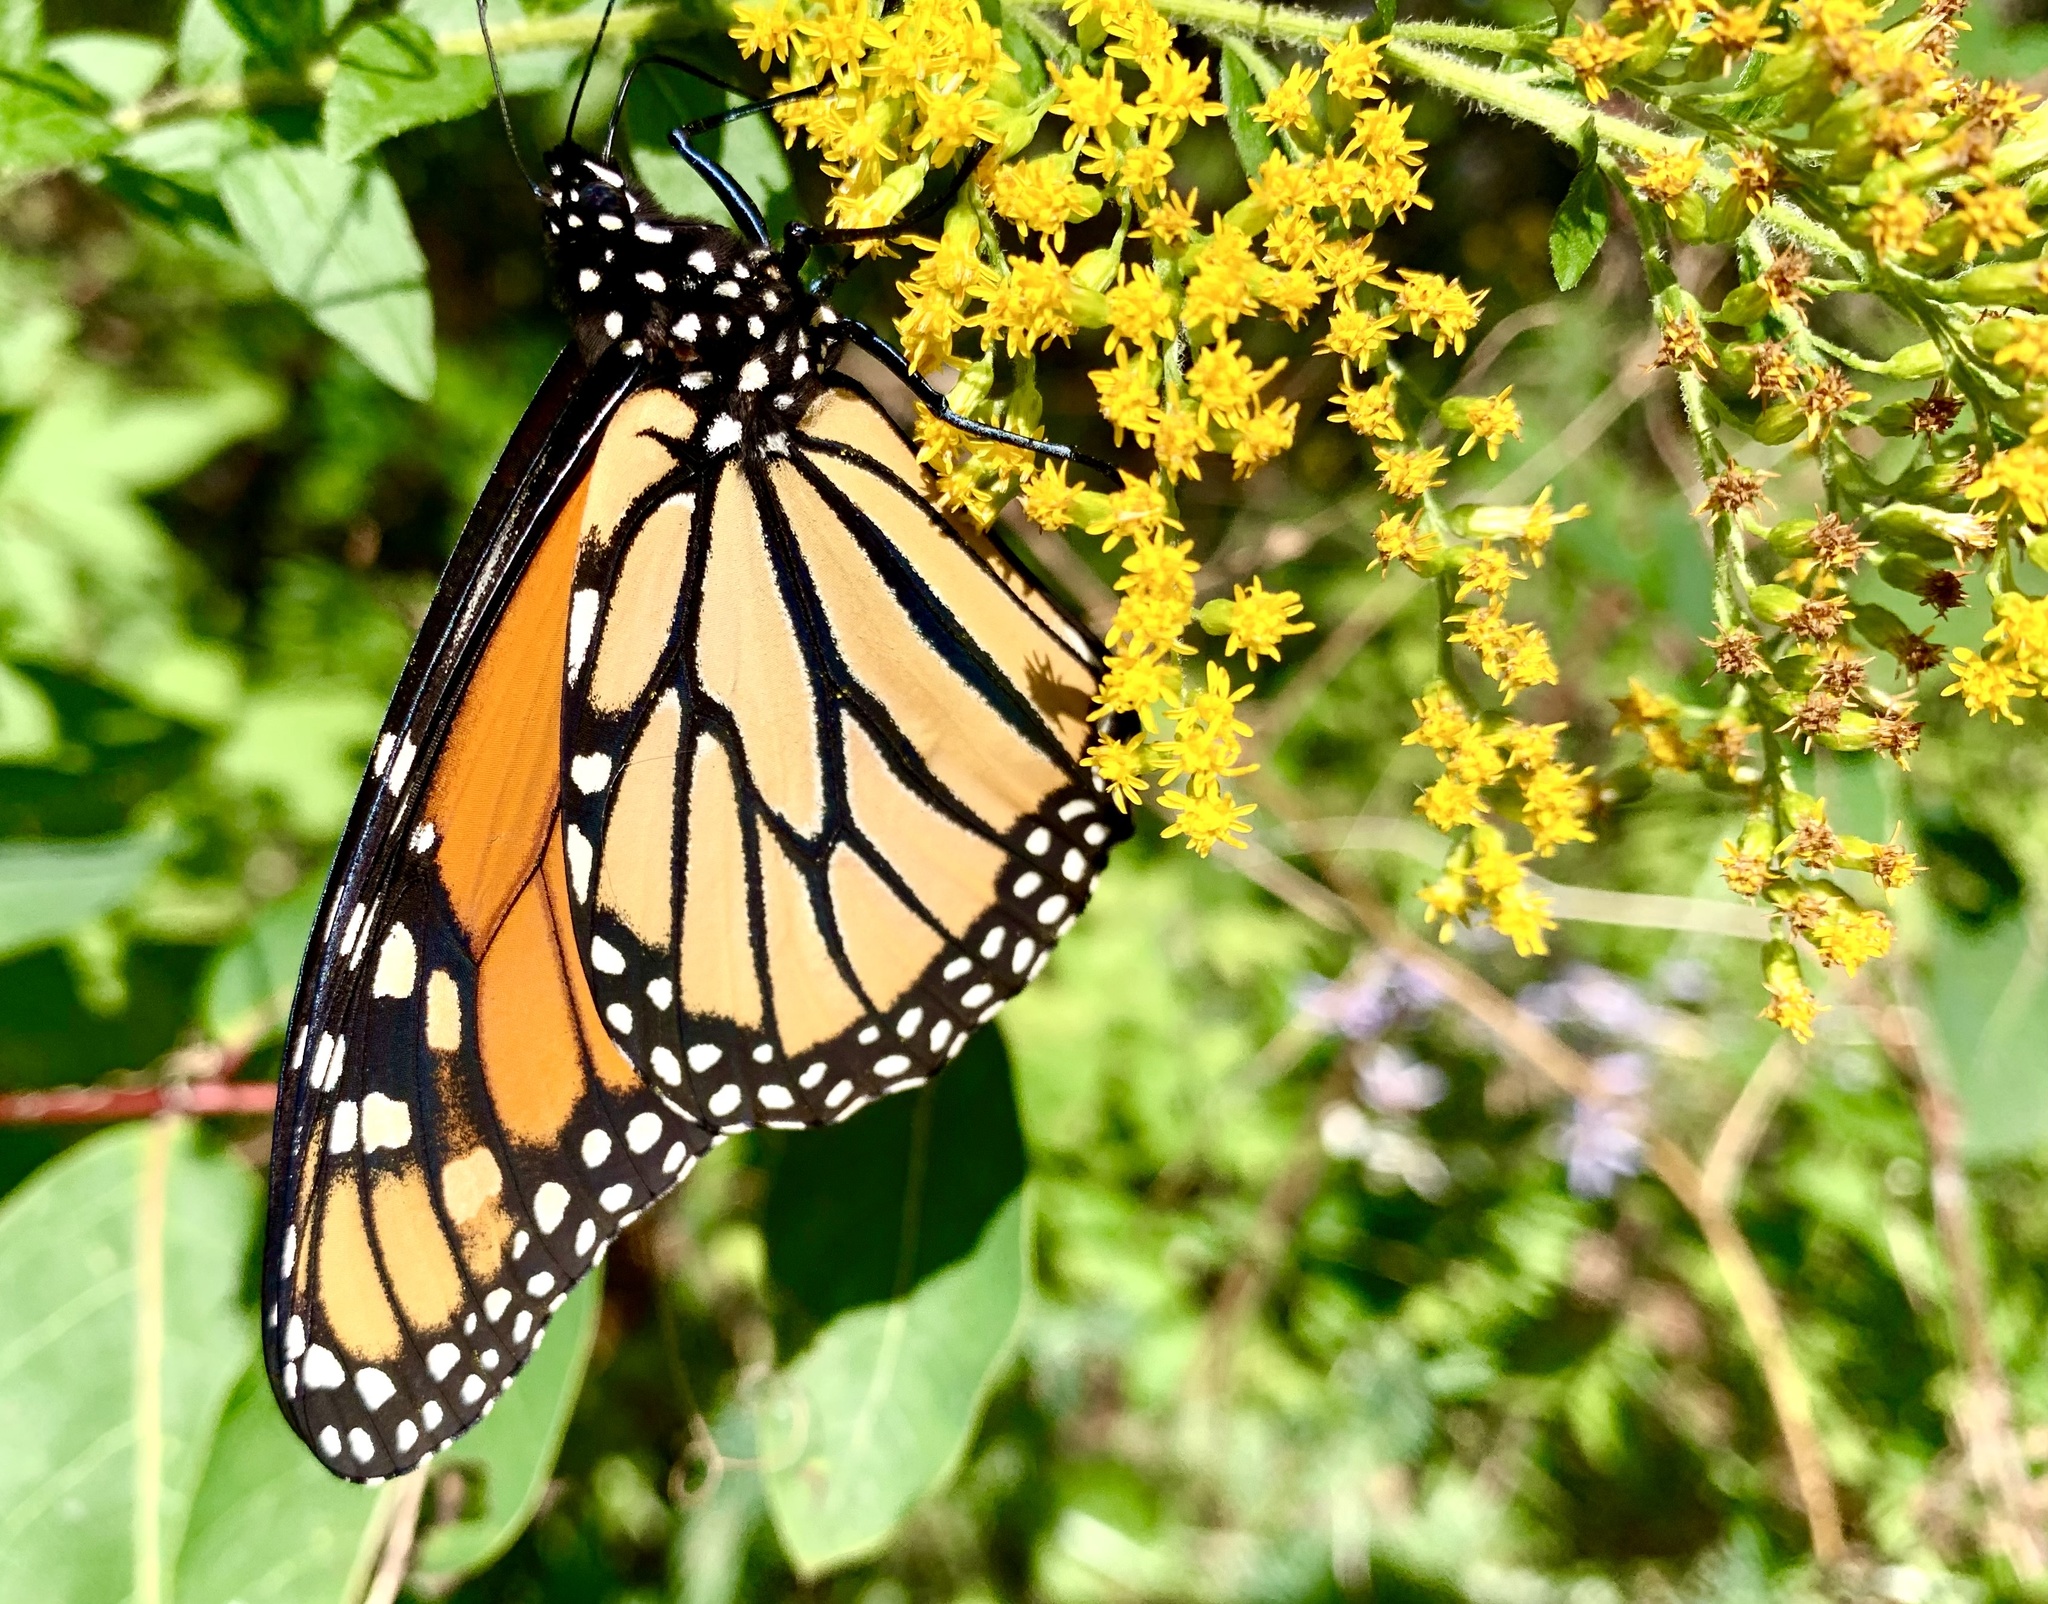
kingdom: Animalia
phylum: Arthropoda
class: Insecta
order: Lepidoptera
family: Nymphalidae
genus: Danaus
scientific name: Danaus plexippus
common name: Monarch
